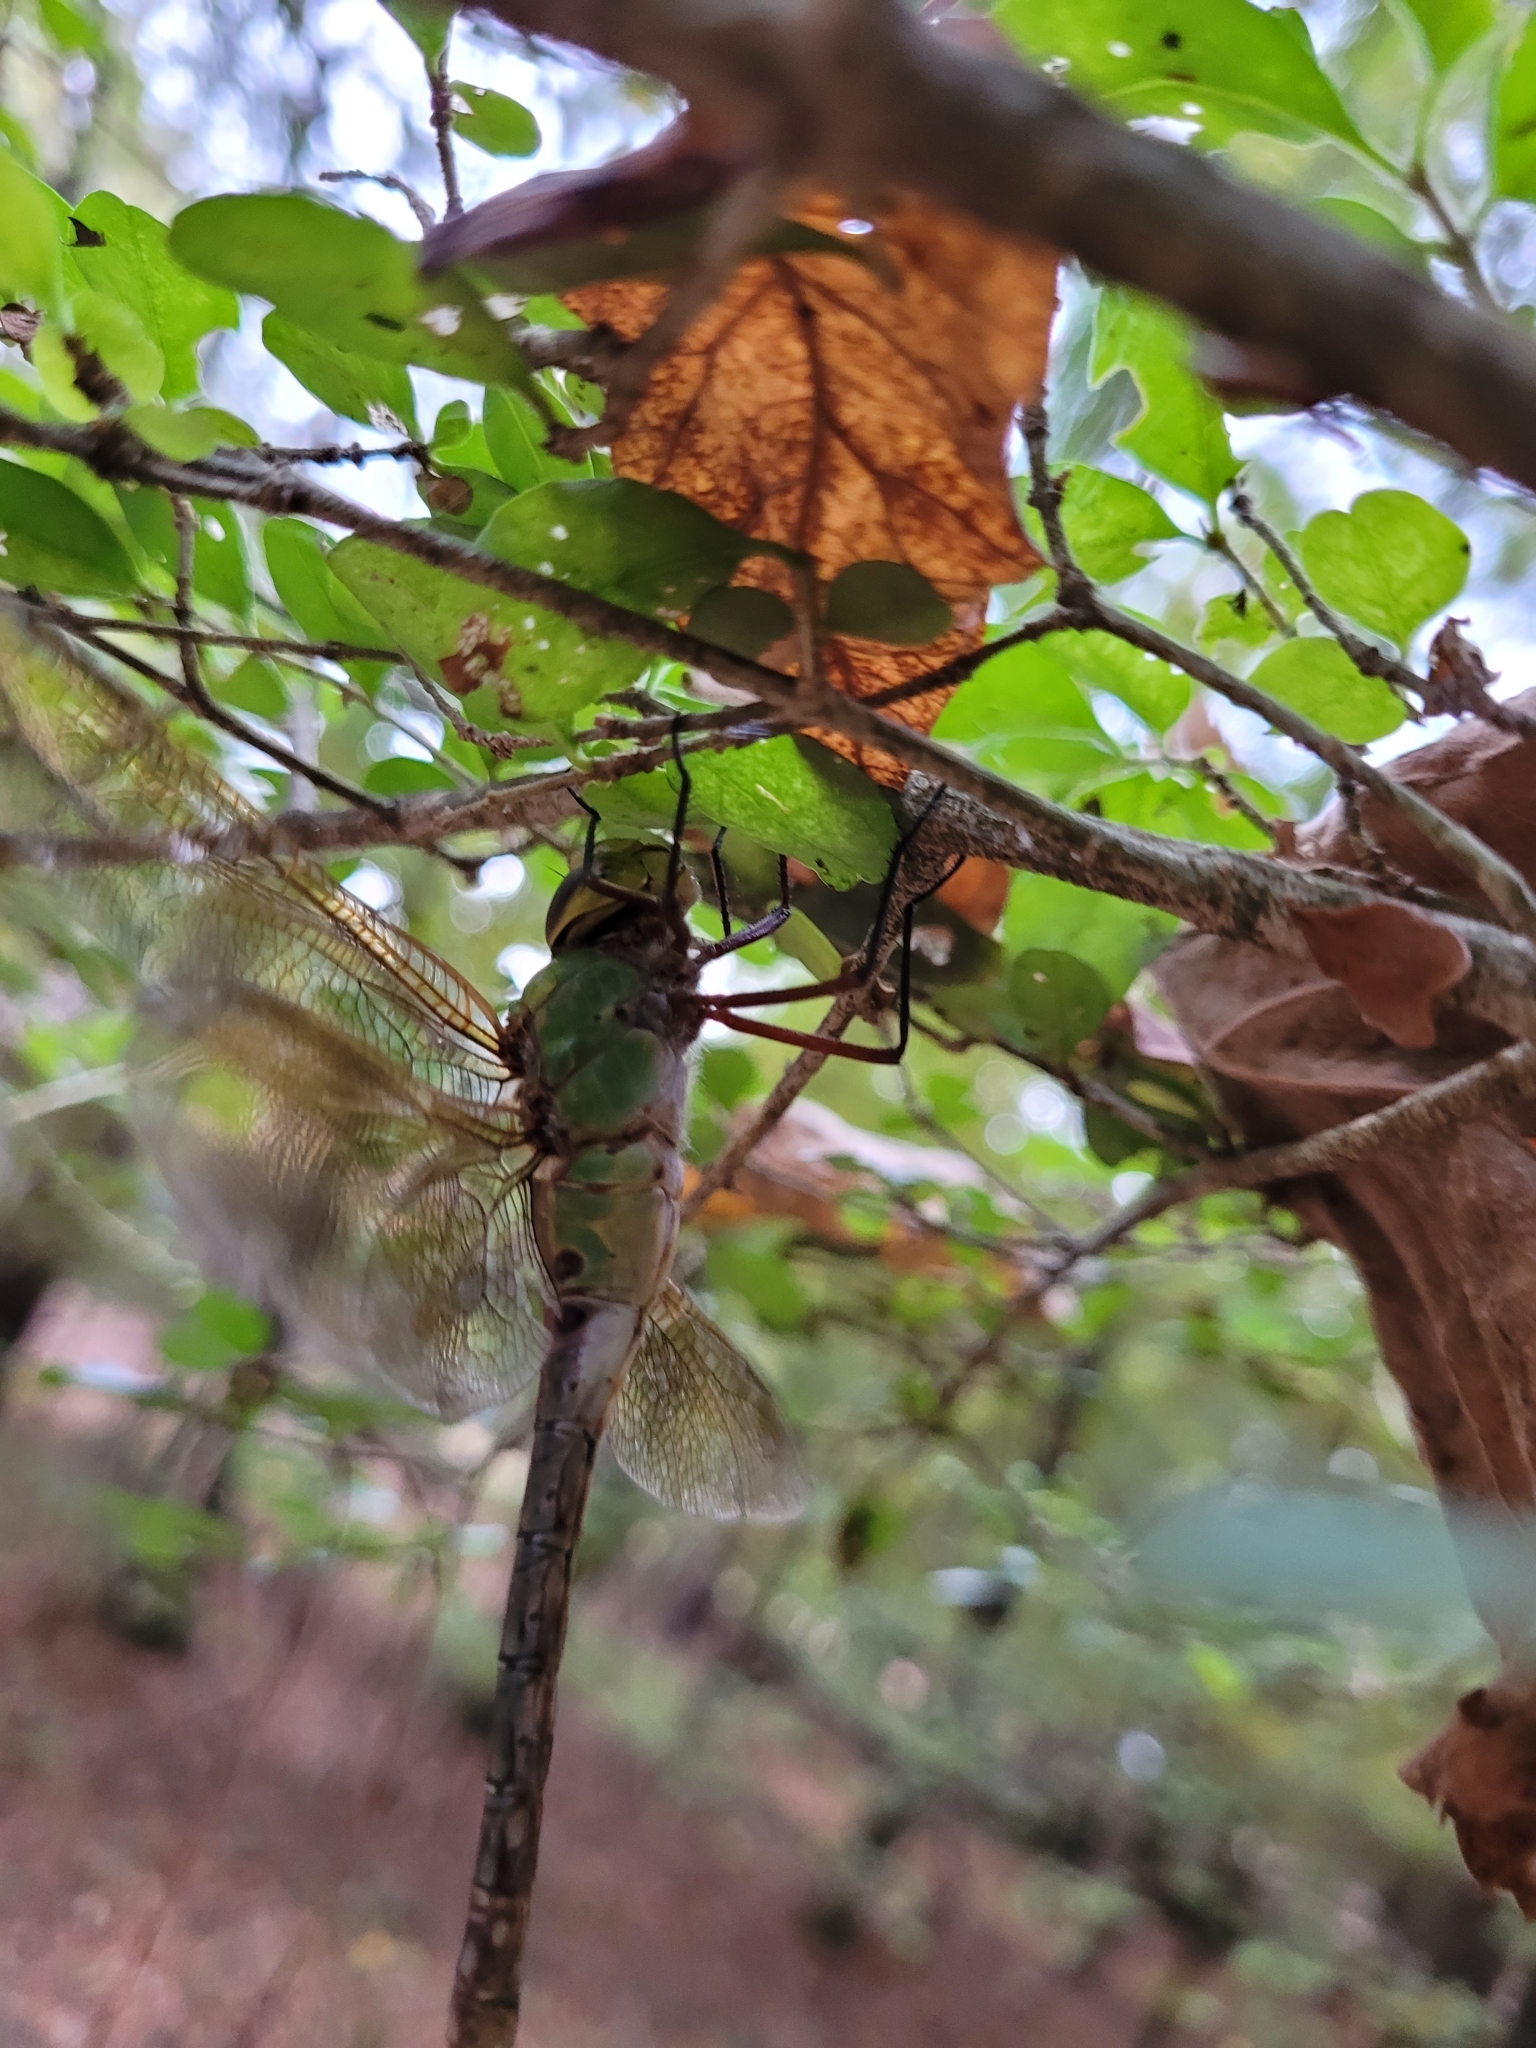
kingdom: Animalia
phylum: Arthropoda
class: Insecta
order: Odonata
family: Aeshnidae
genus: Anax
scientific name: Anax junius
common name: Common green darner
